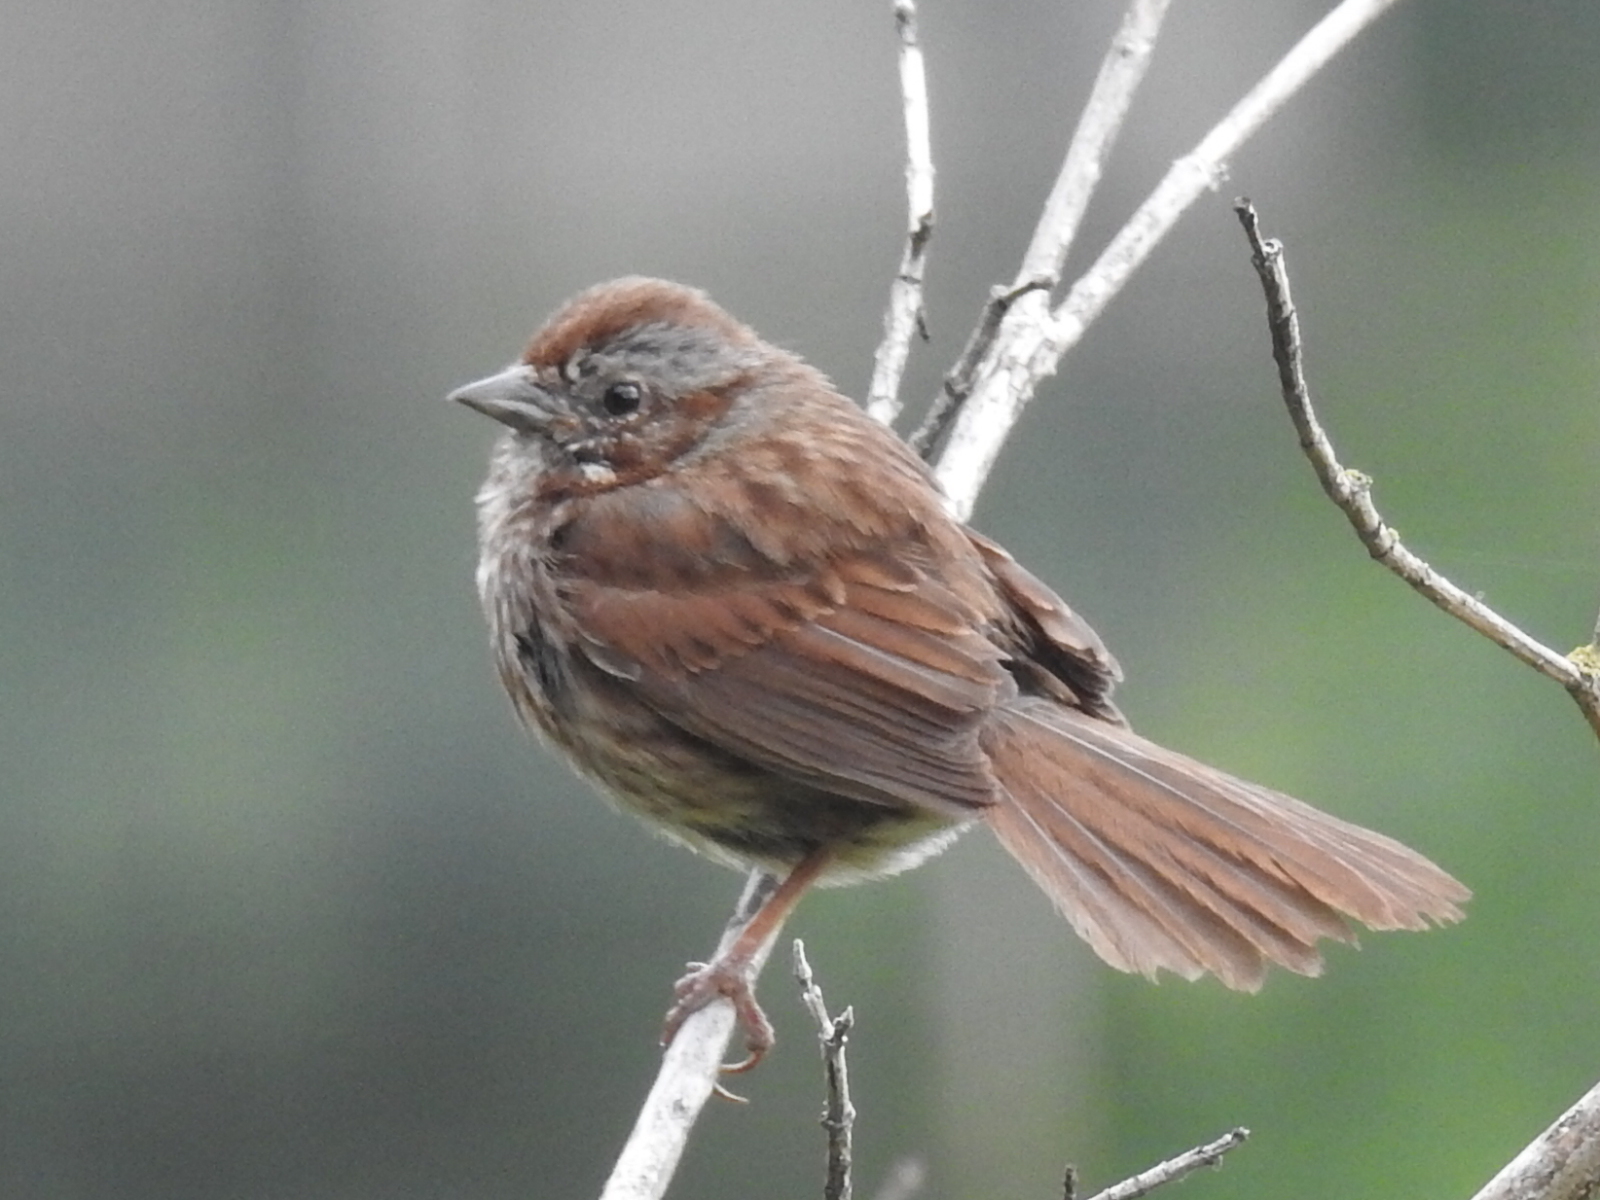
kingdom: Animalia
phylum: Chordata
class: Aves
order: Passeriformes
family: Passerellidae
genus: Melospiza
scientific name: Melospiza melodia
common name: Song sparrow
